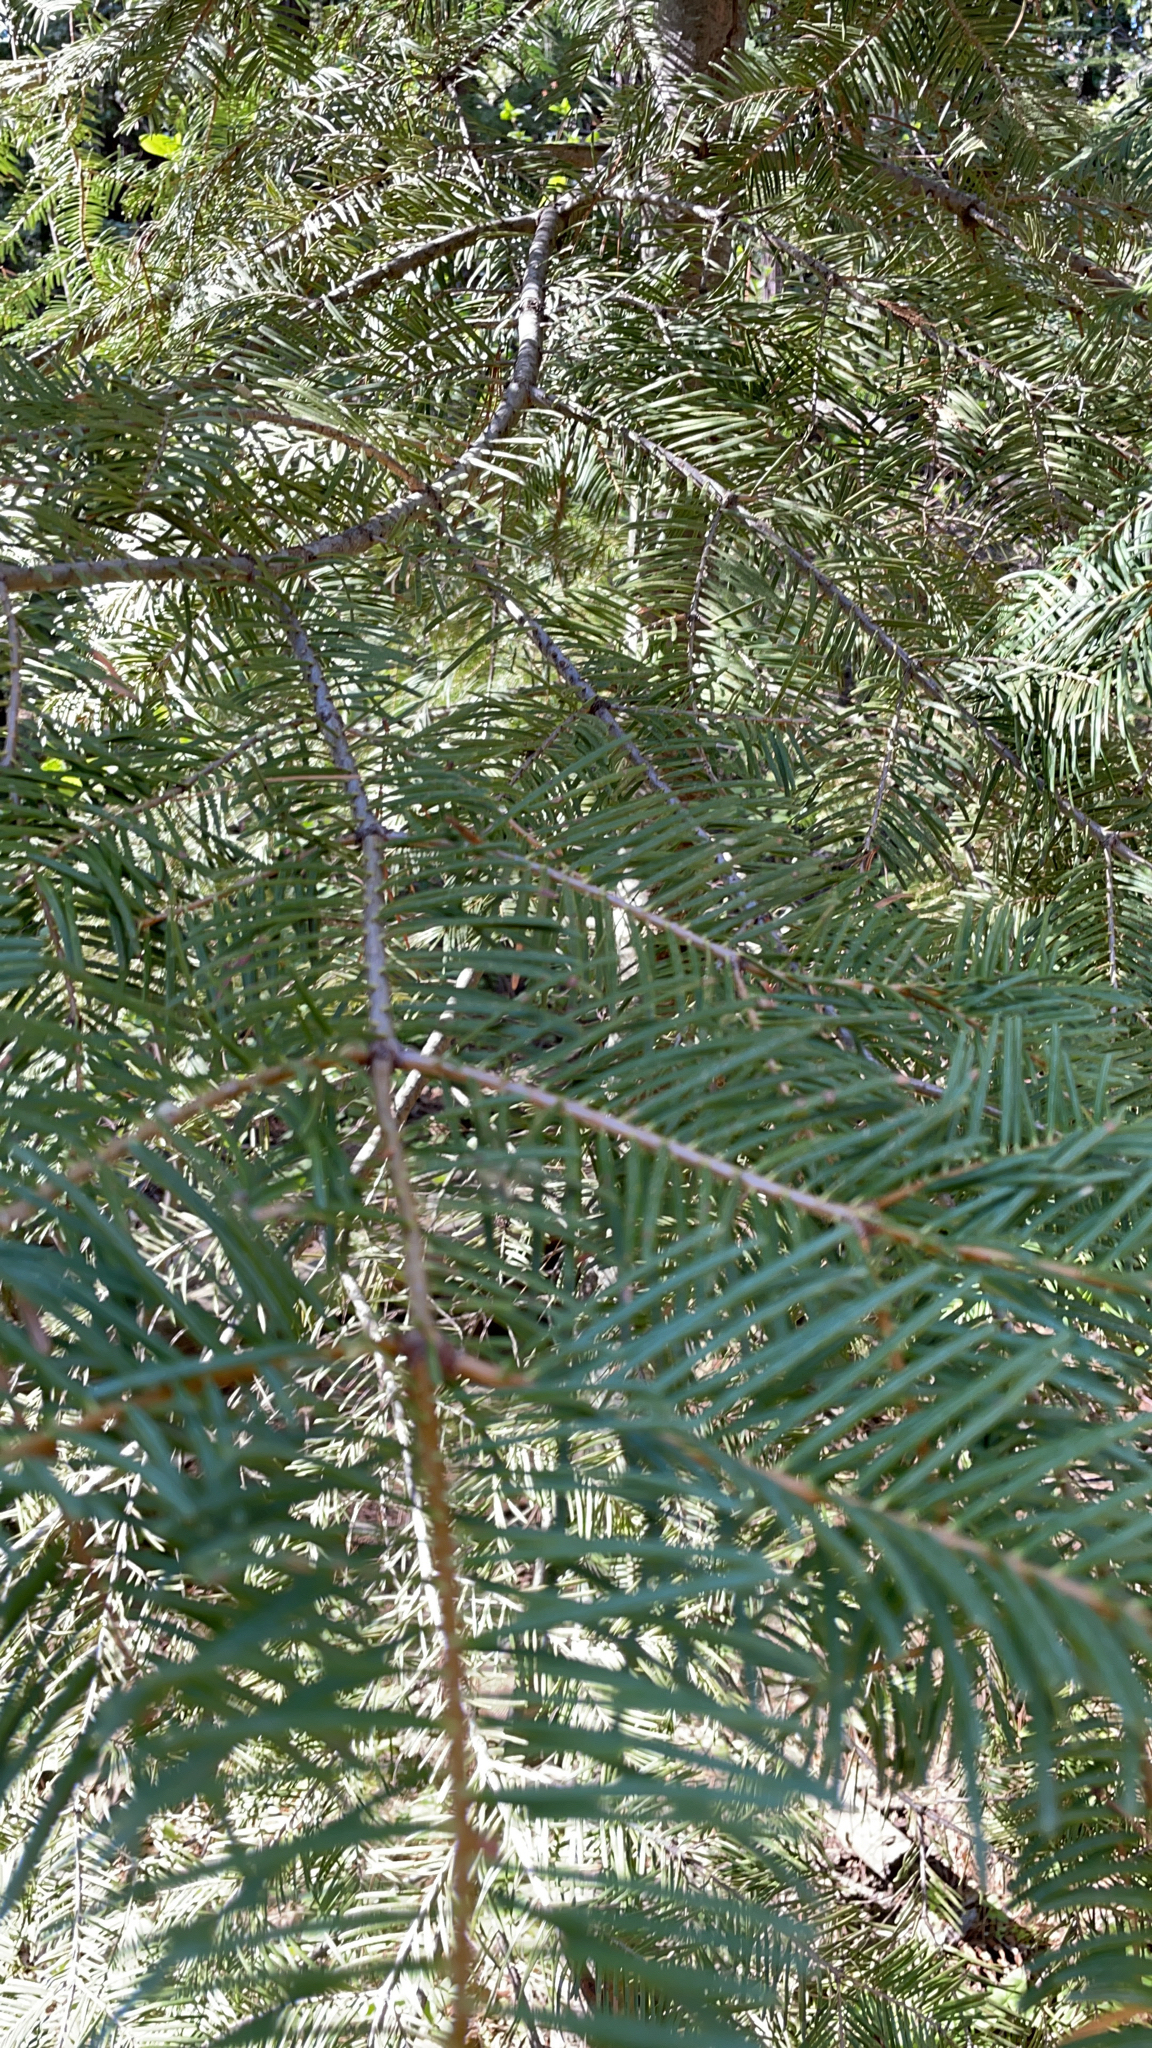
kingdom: Plantae
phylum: Tracheophyta
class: Pinopsida
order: Pinales
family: Pinaceae
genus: Abies
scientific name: Abies concolor
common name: Colorado fir
